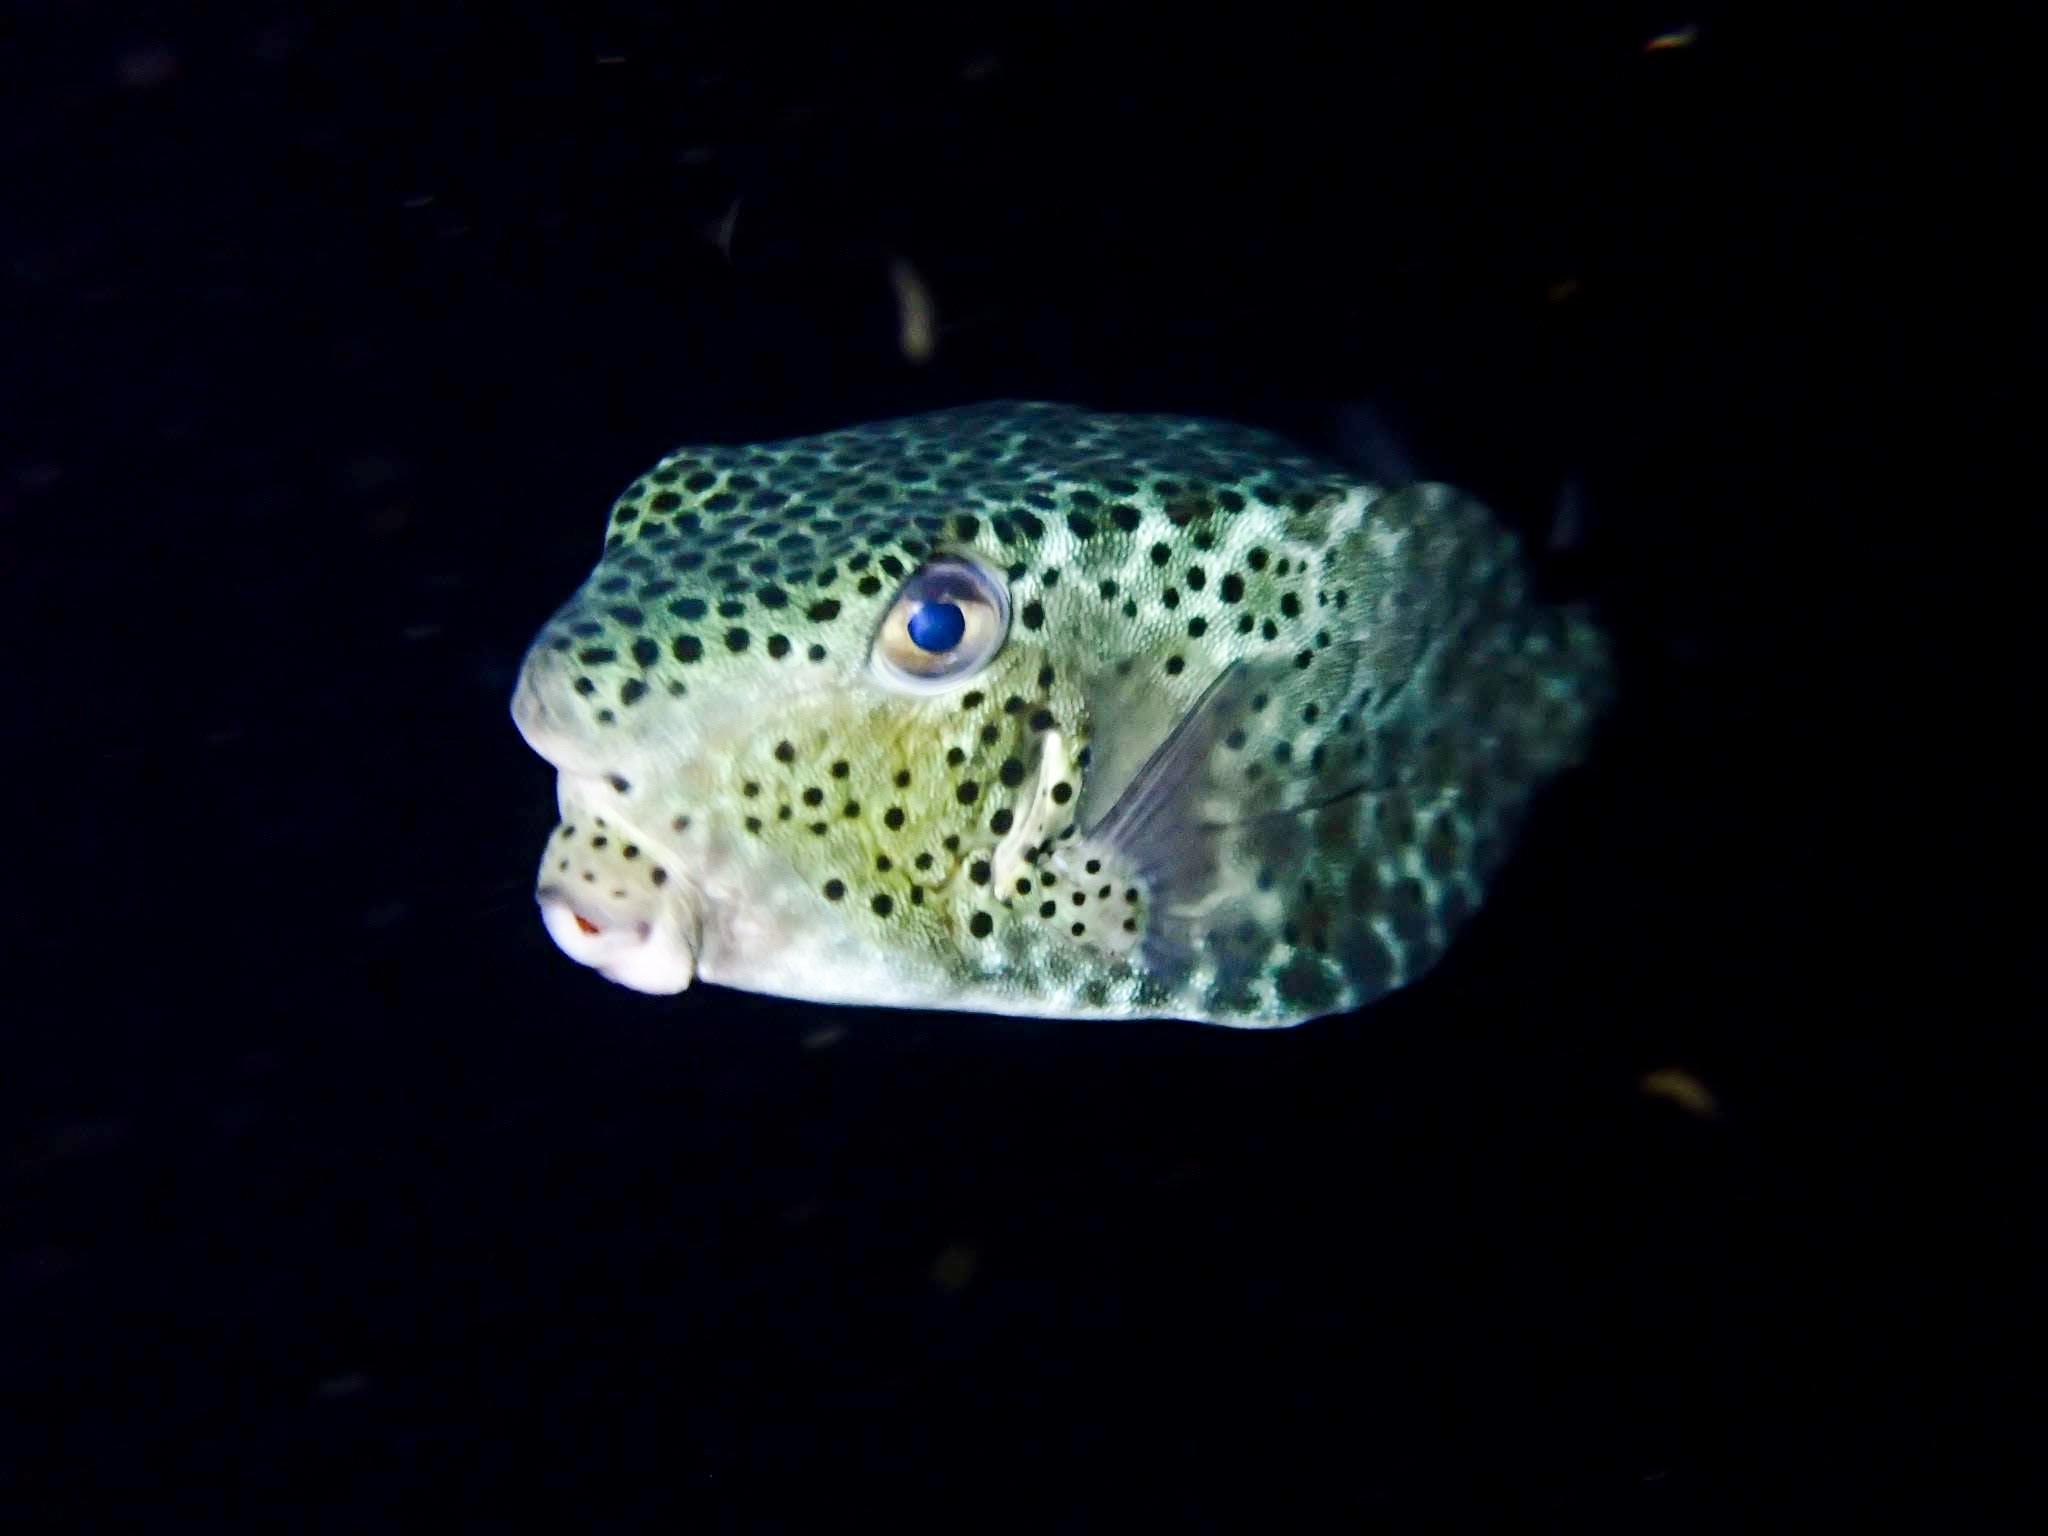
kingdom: Animalia
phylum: Chordata
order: Tetraodontiformes
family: Ostraciidae
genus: Ostracion
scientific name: Ostracion rhinorhynchos
